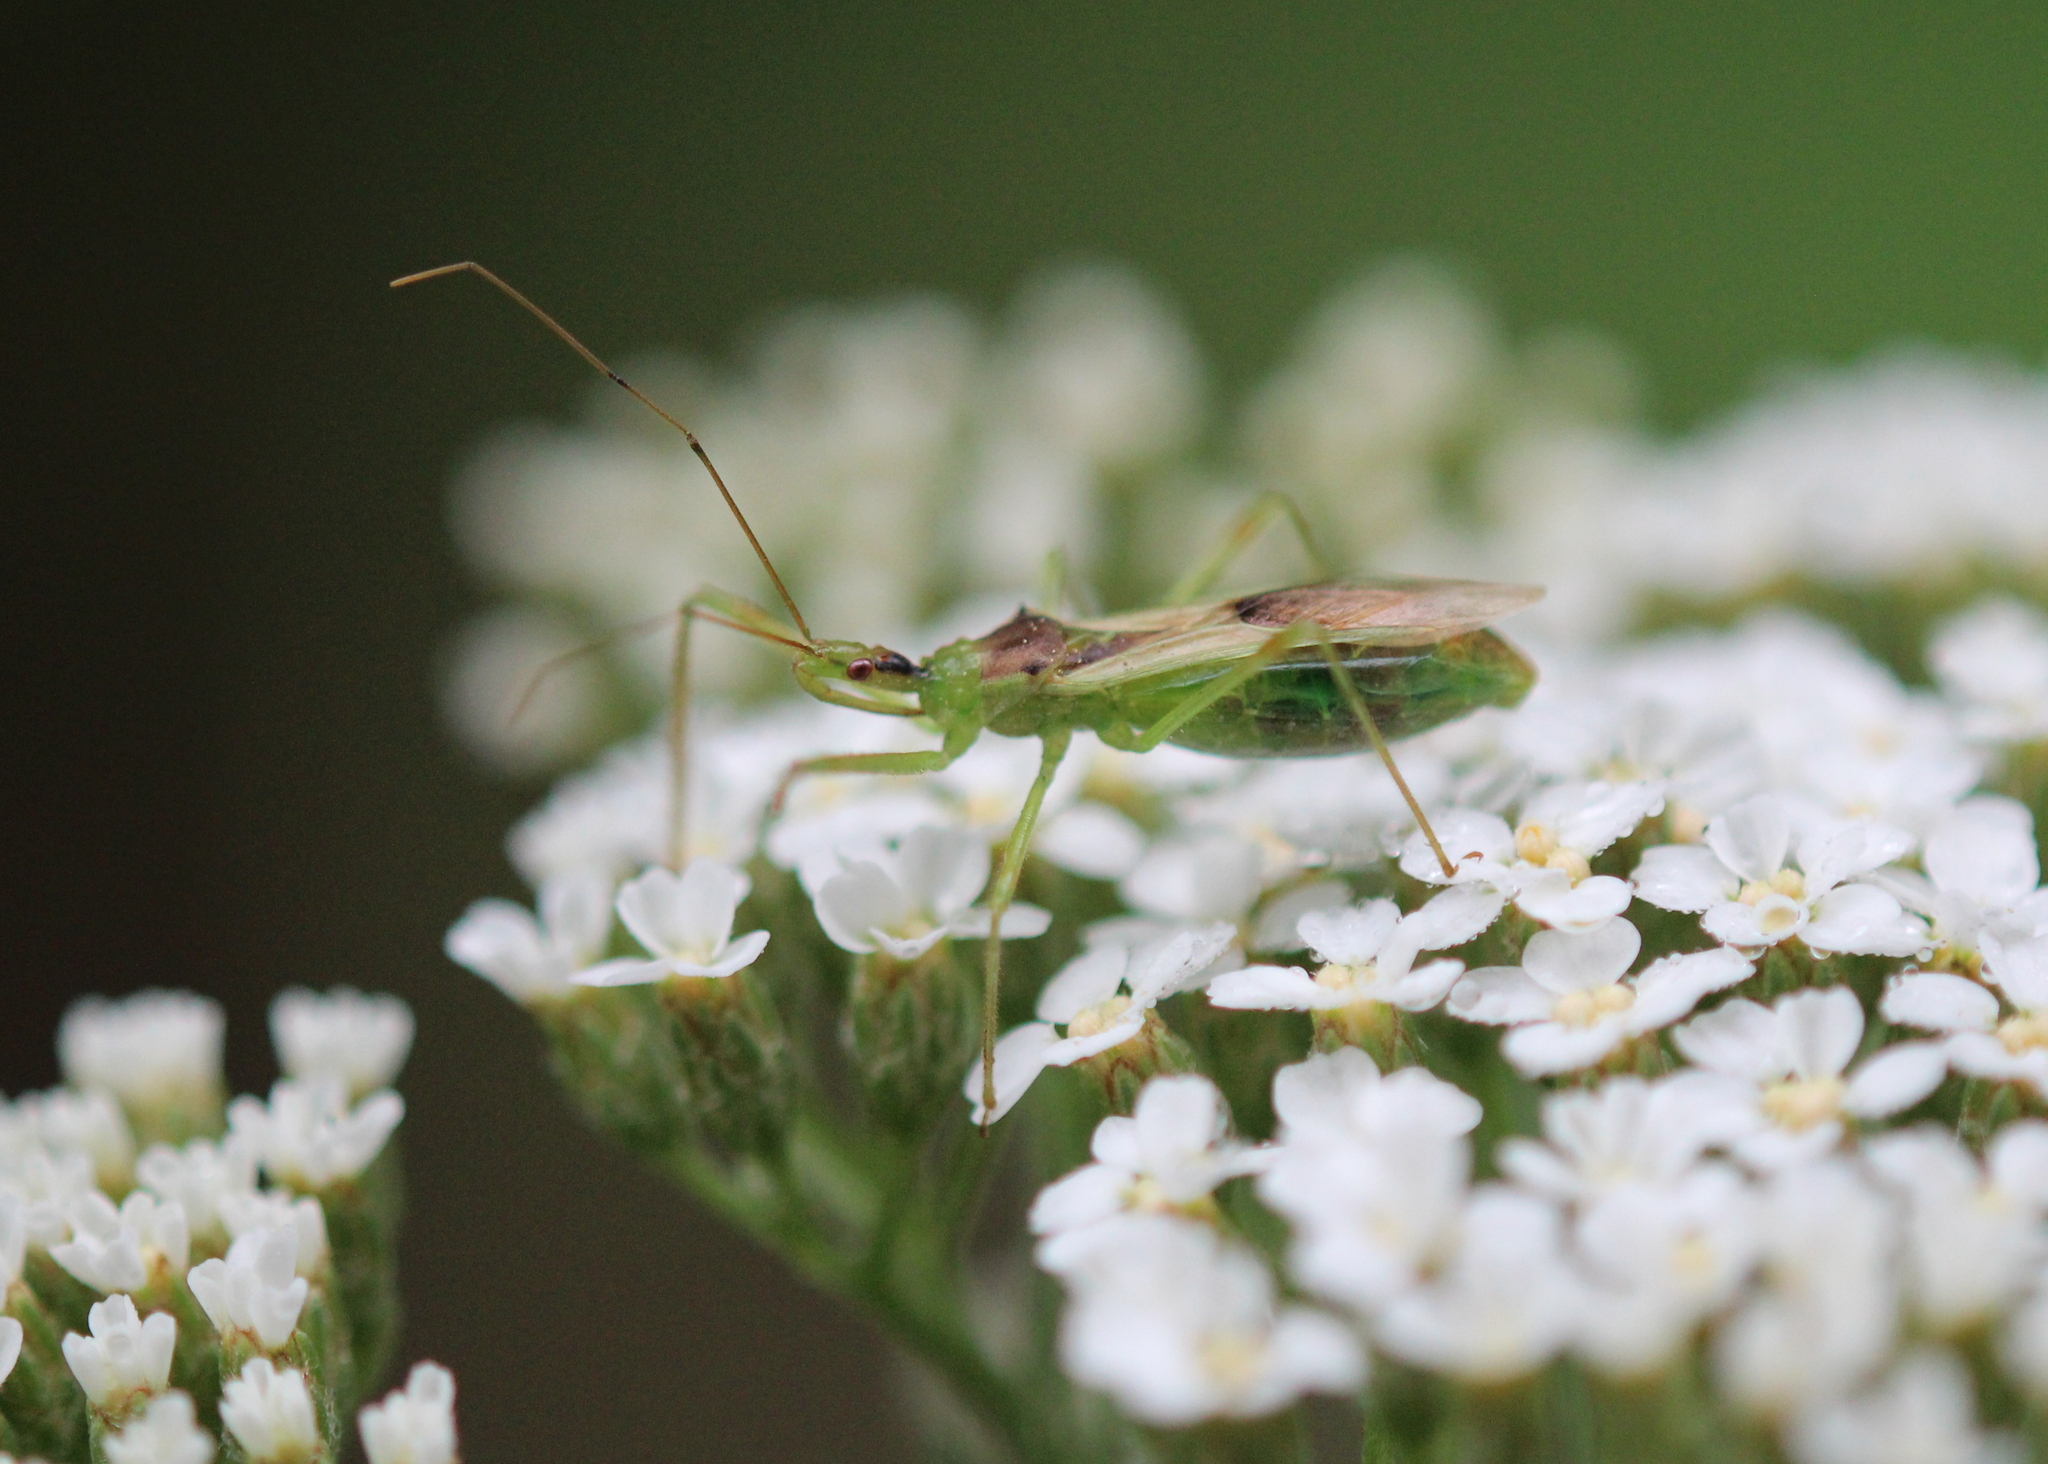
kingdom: Animalia
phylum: Arthropoda
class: Insecta
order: Hemiptera
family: Reduviidae
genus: Zelus
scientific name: Zelus luridus
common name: Pale green assassin bug
